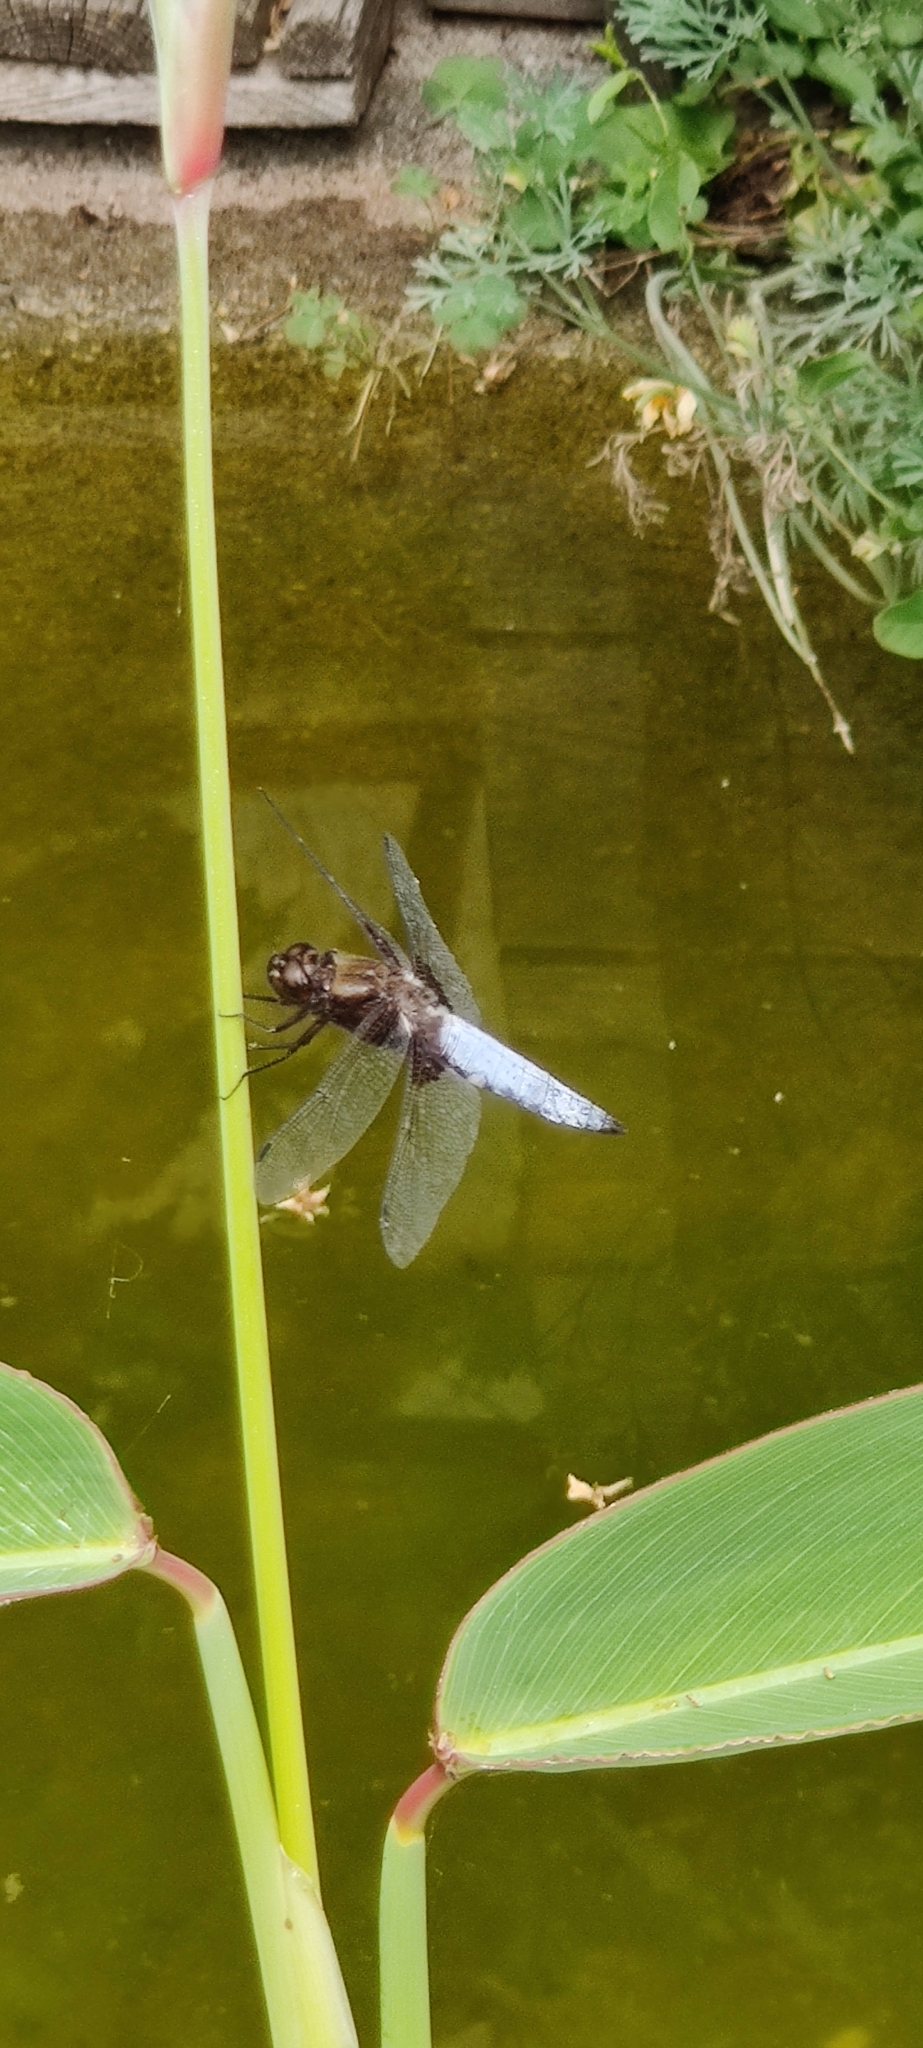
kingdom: Animalia
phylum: Arthropoda
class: Insecta
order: Odonata
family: Libellulidae
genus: Libellula
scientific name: Libellula depressa
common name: Broad-bodied chaser
